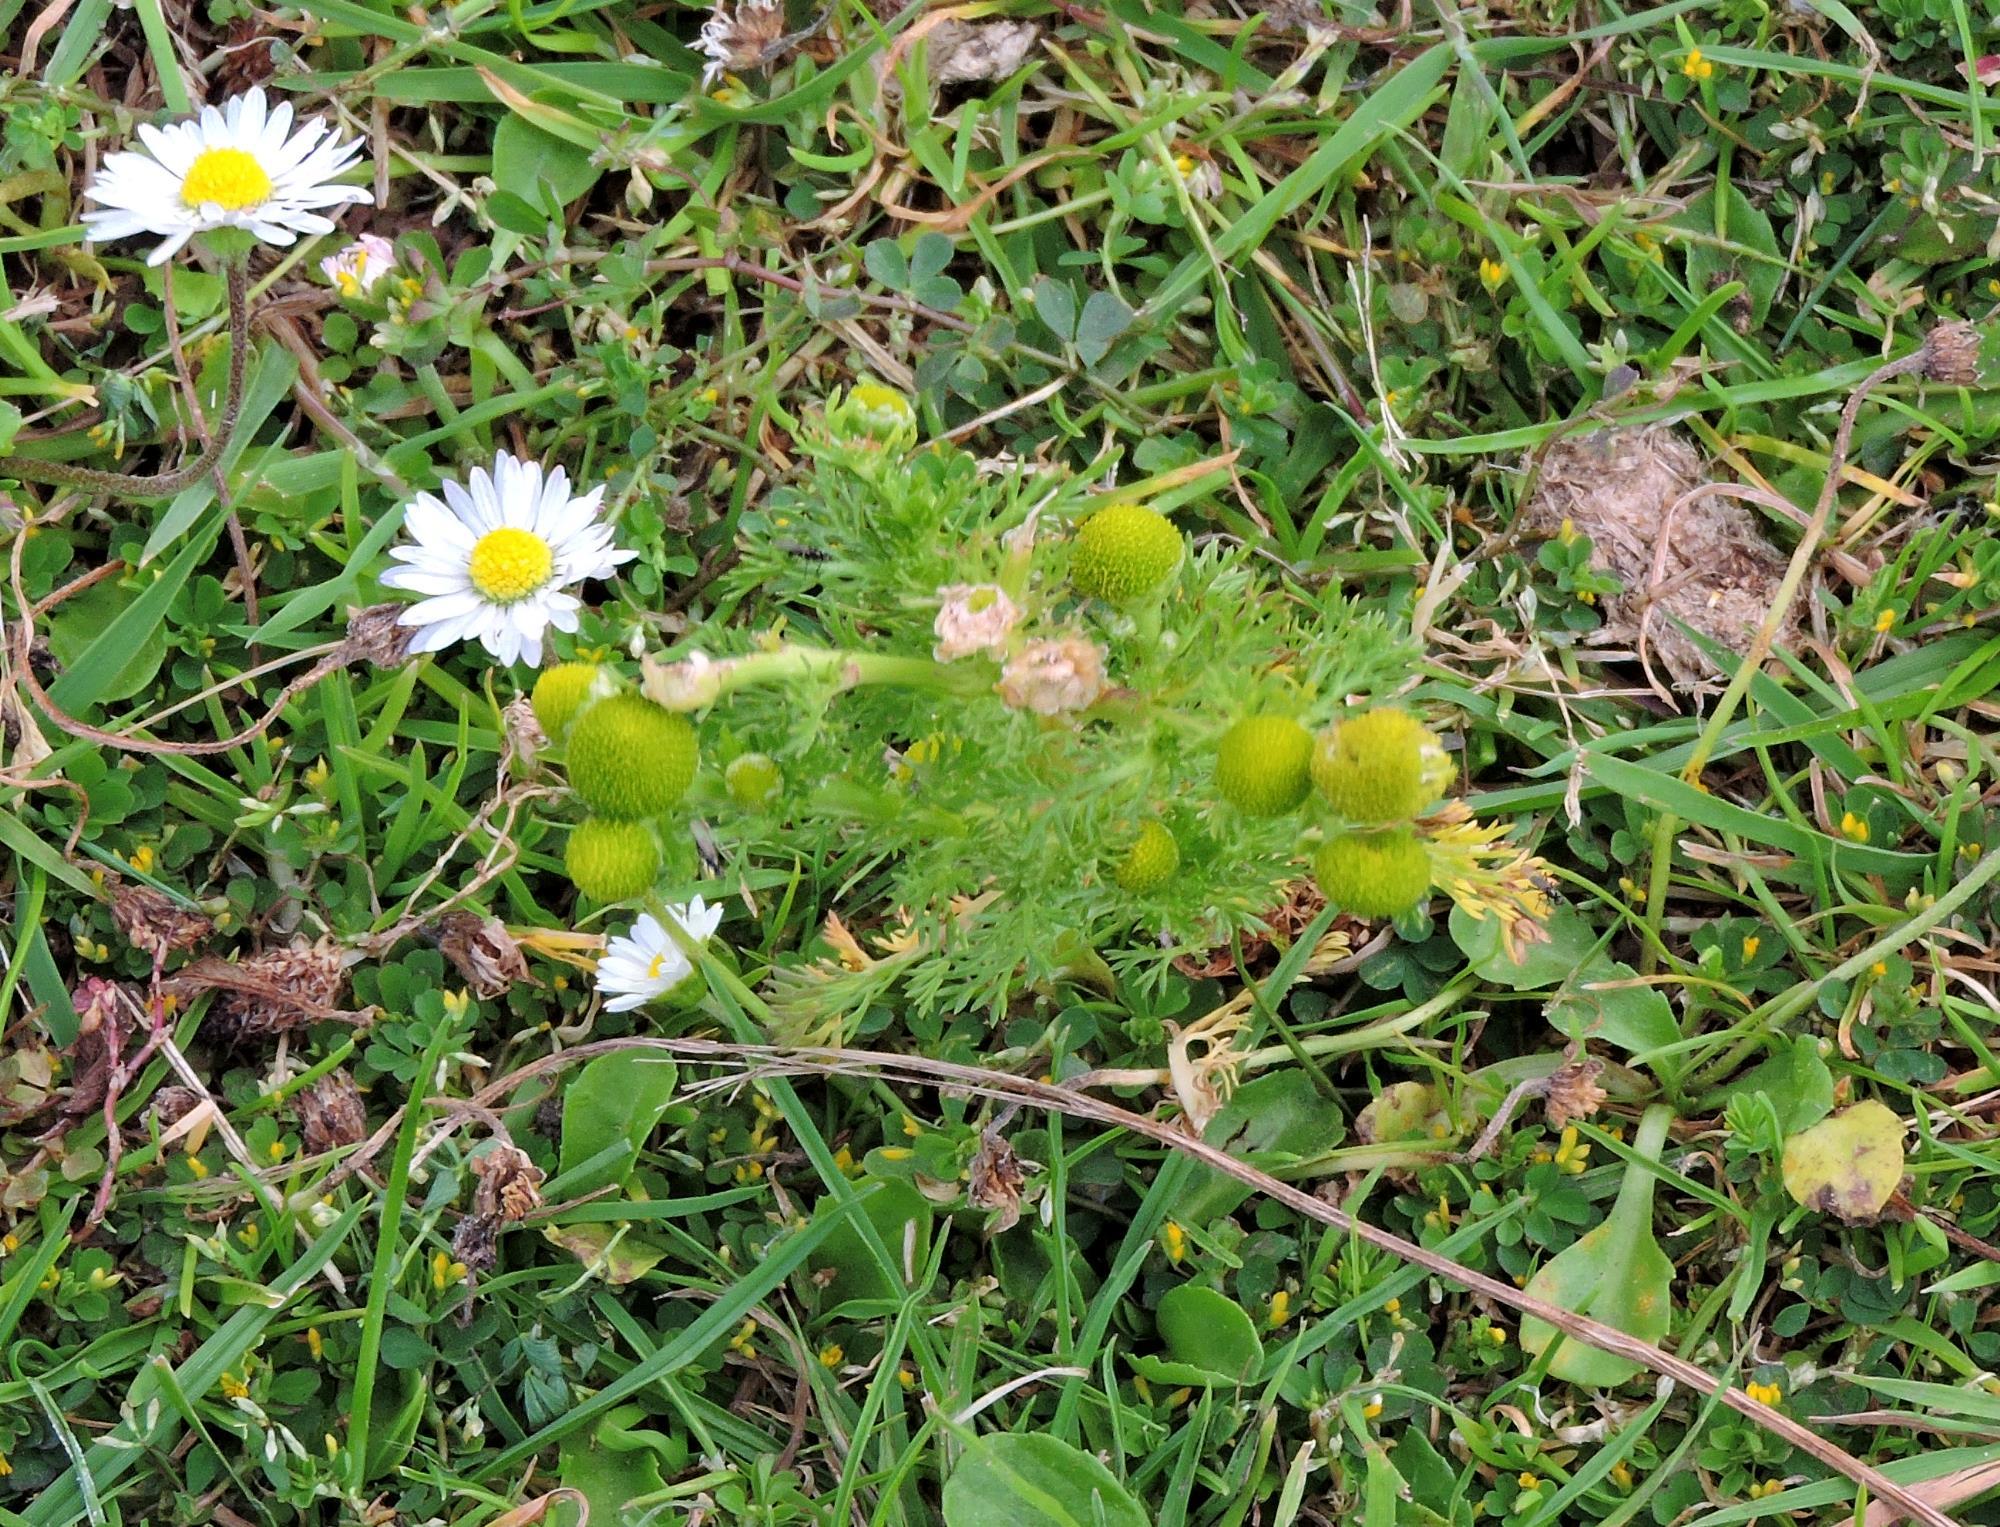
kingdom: Plantae
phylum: Tracheophyta
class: Magnoliopsida
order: Asterales
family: Asteraceae
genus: Matricaria
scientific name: Matricaria discoidea
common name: Disc mayweed
